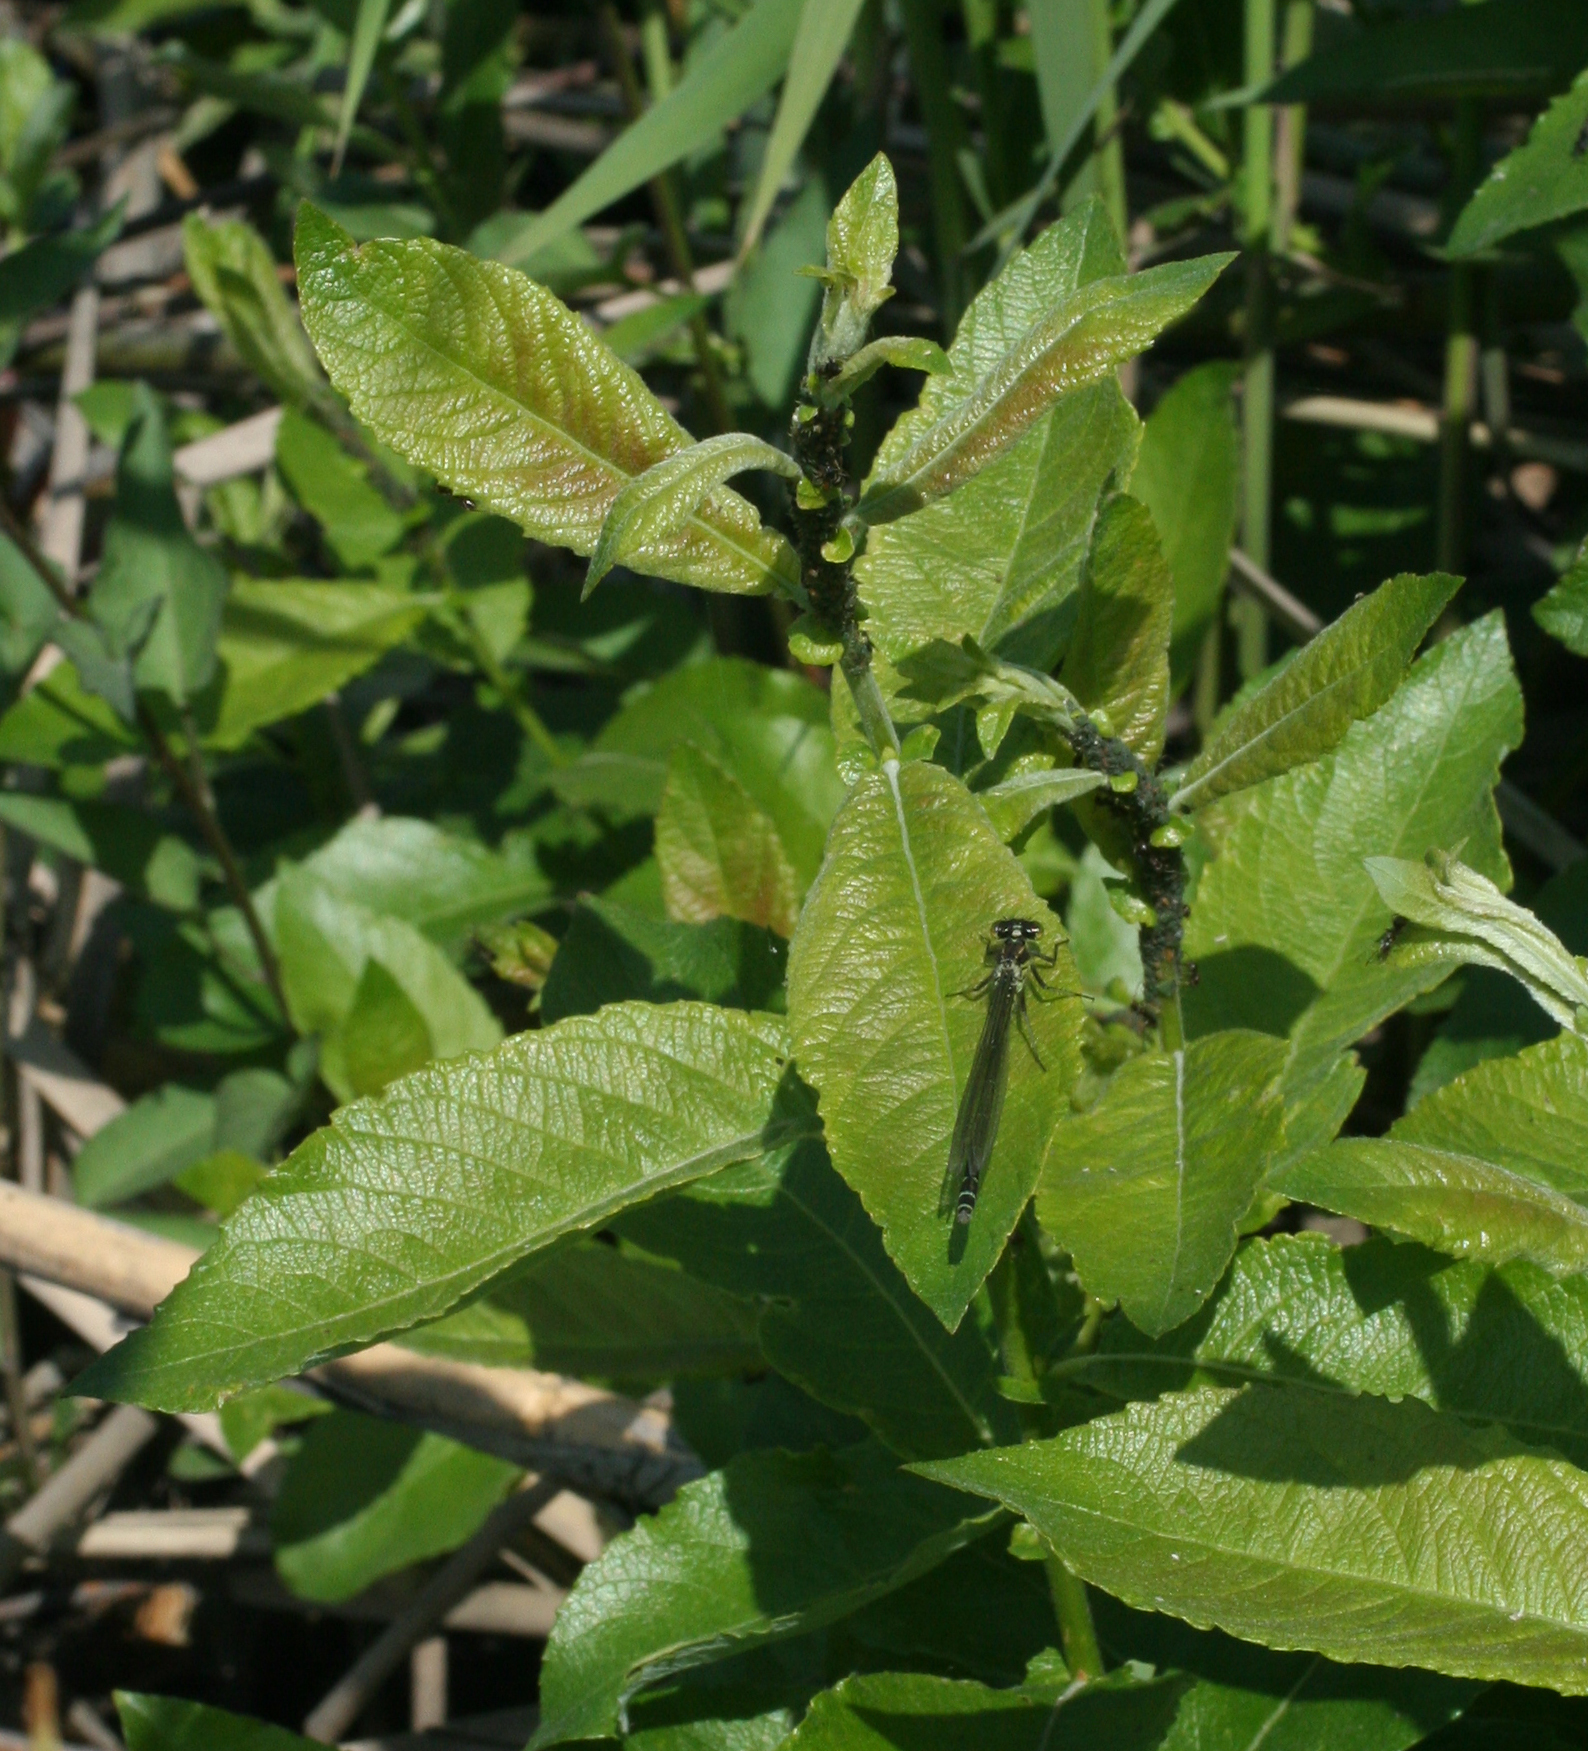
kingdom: Animalia
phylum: Arthropoda
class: Insecta
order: Odonata
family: Coenagrionidae
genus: Erythromma
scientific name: Erythromma najas
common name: Red-eyed damselfly
